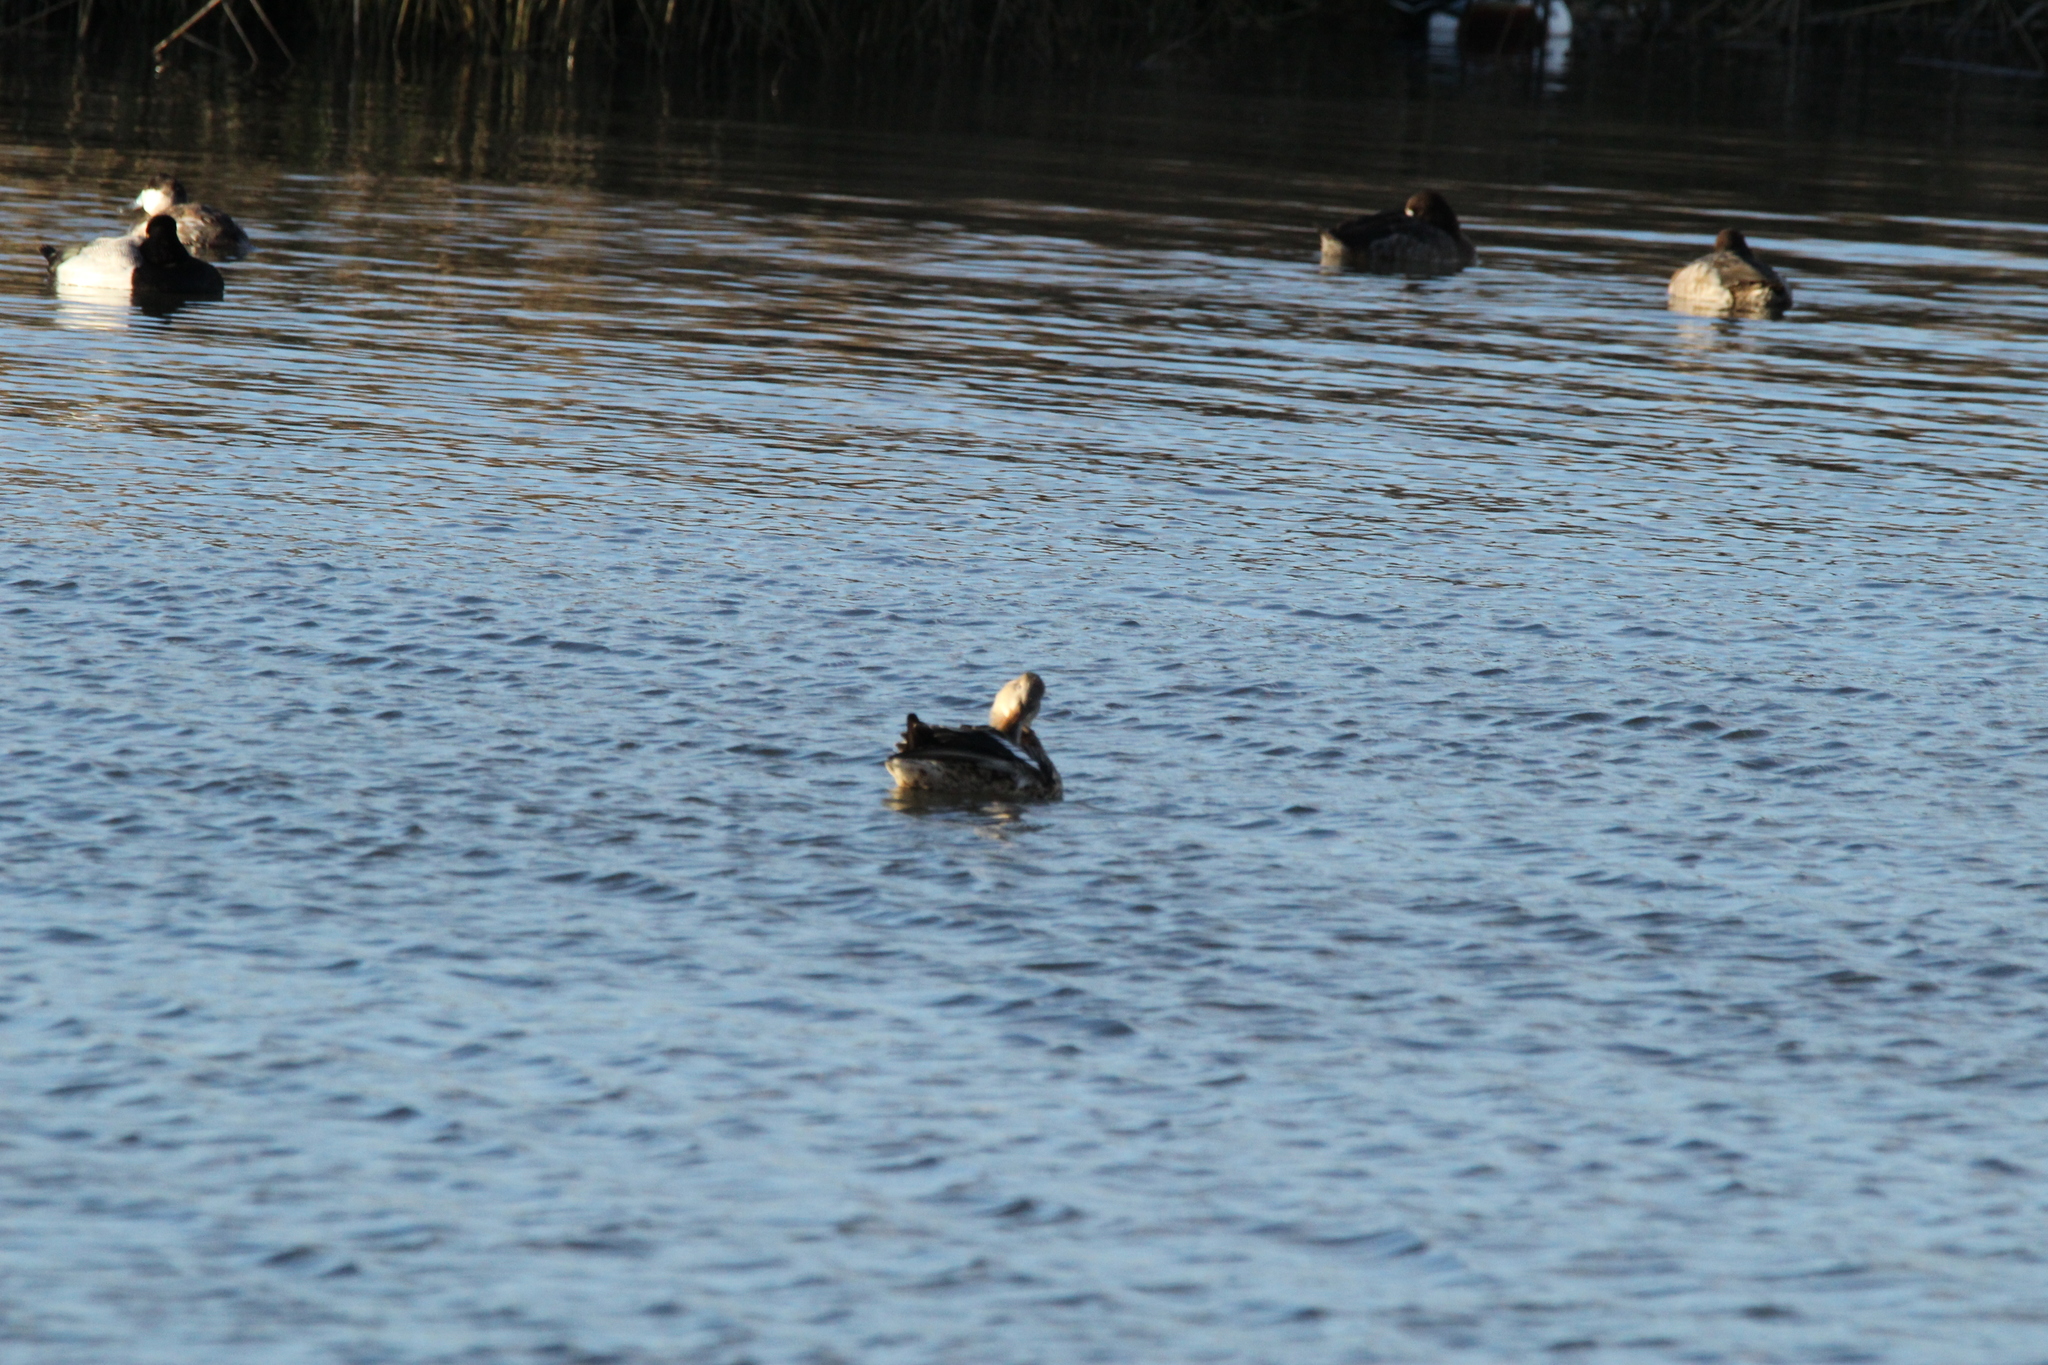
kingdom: Animalia
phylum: Chordata
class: Aves
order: Anseriformes
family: Anatidae
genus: Anas
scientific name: Anas platyrhynchos
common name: Mallard
